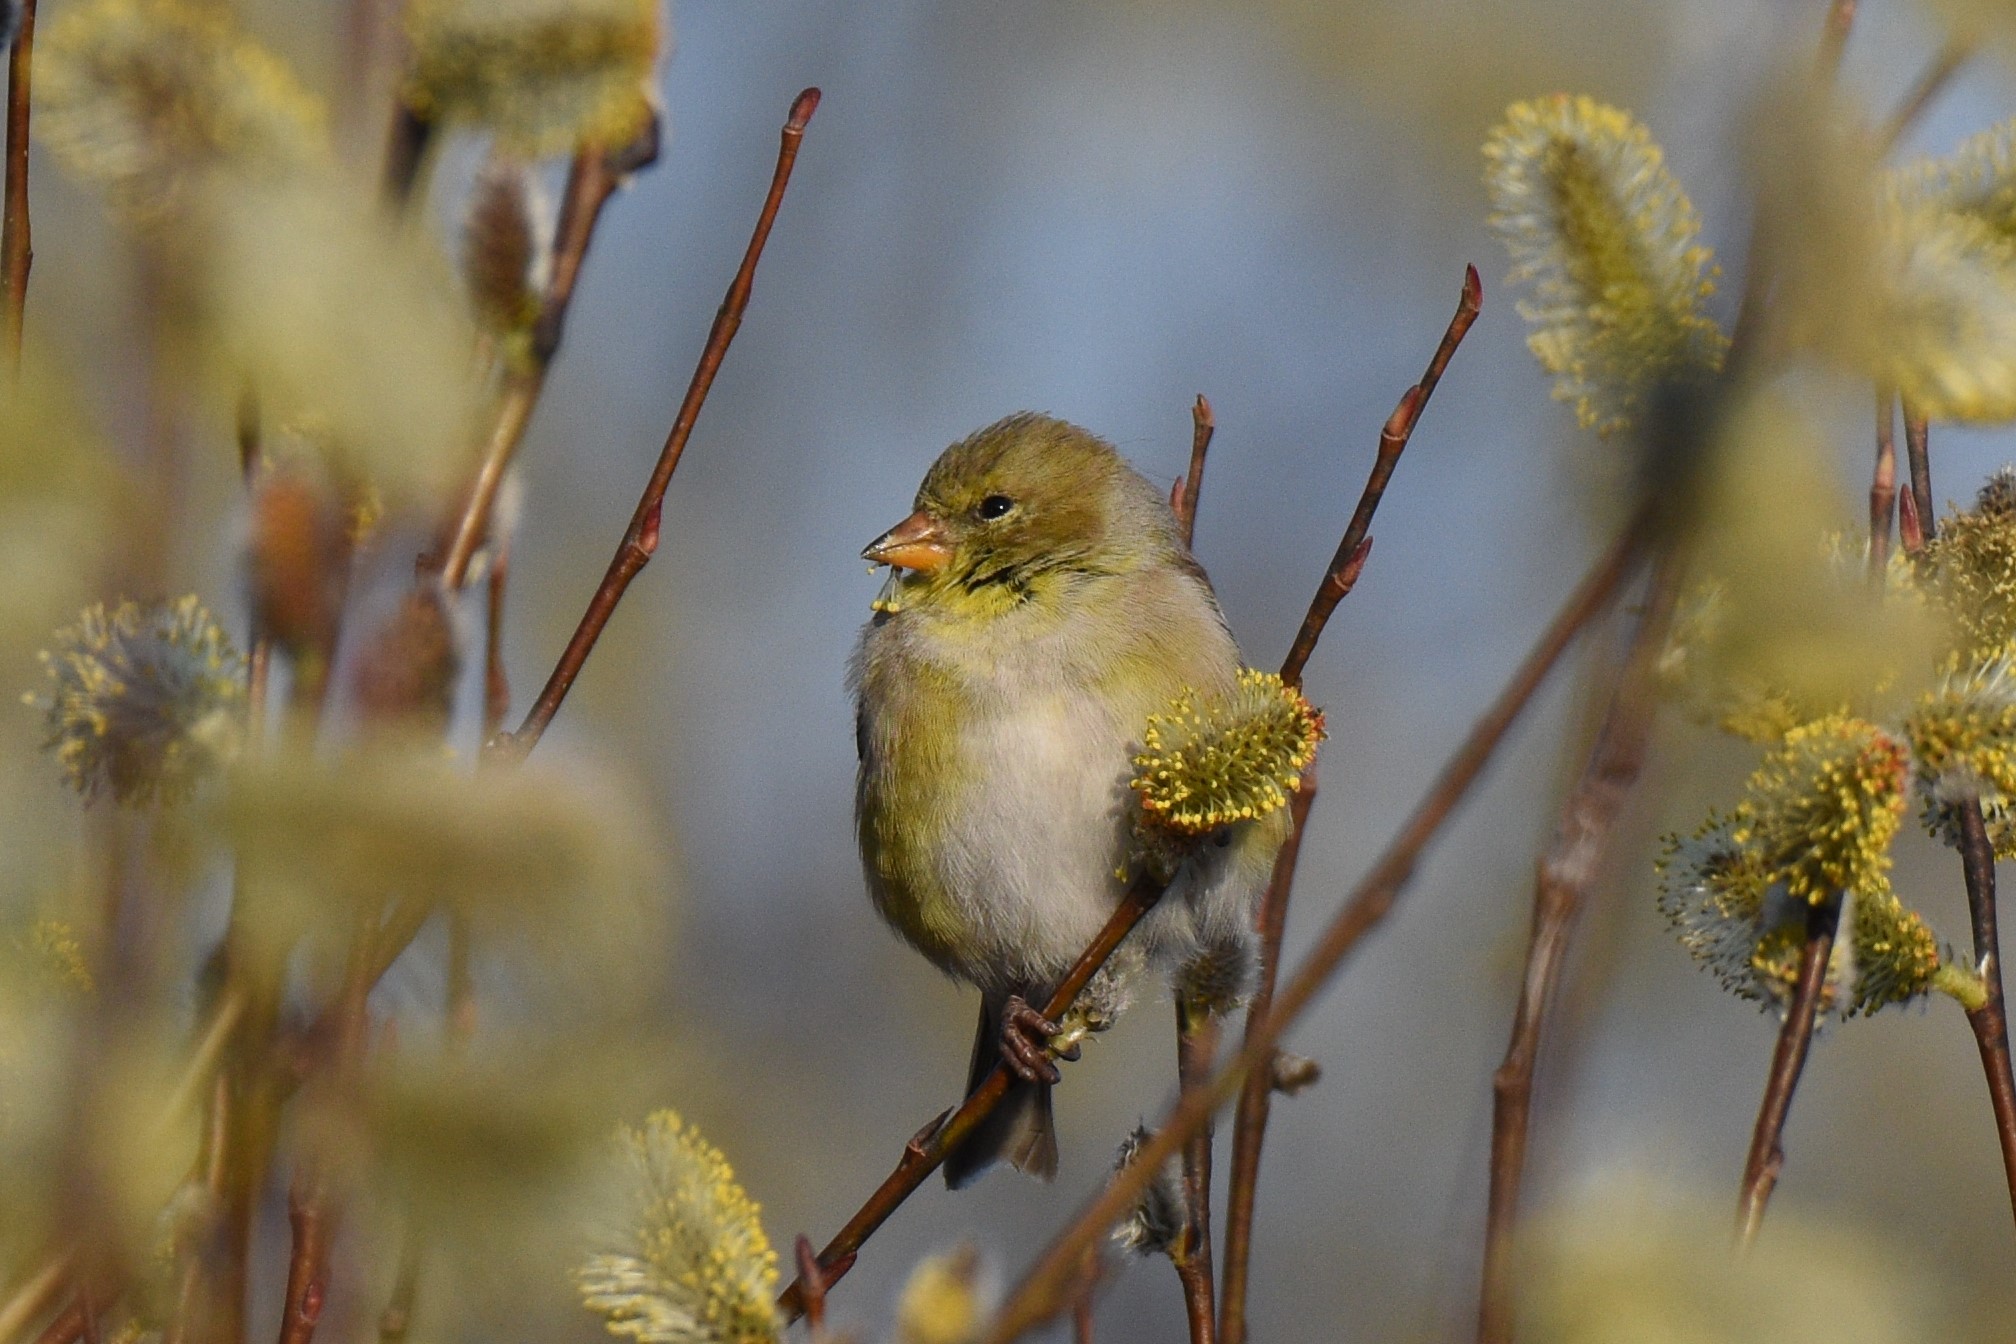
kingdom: Animalia
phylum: Chordata
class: Aves
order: Passeriformes
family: Fringillidae
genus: Spinus
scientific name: Spinus tristis
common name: American goldfinch
